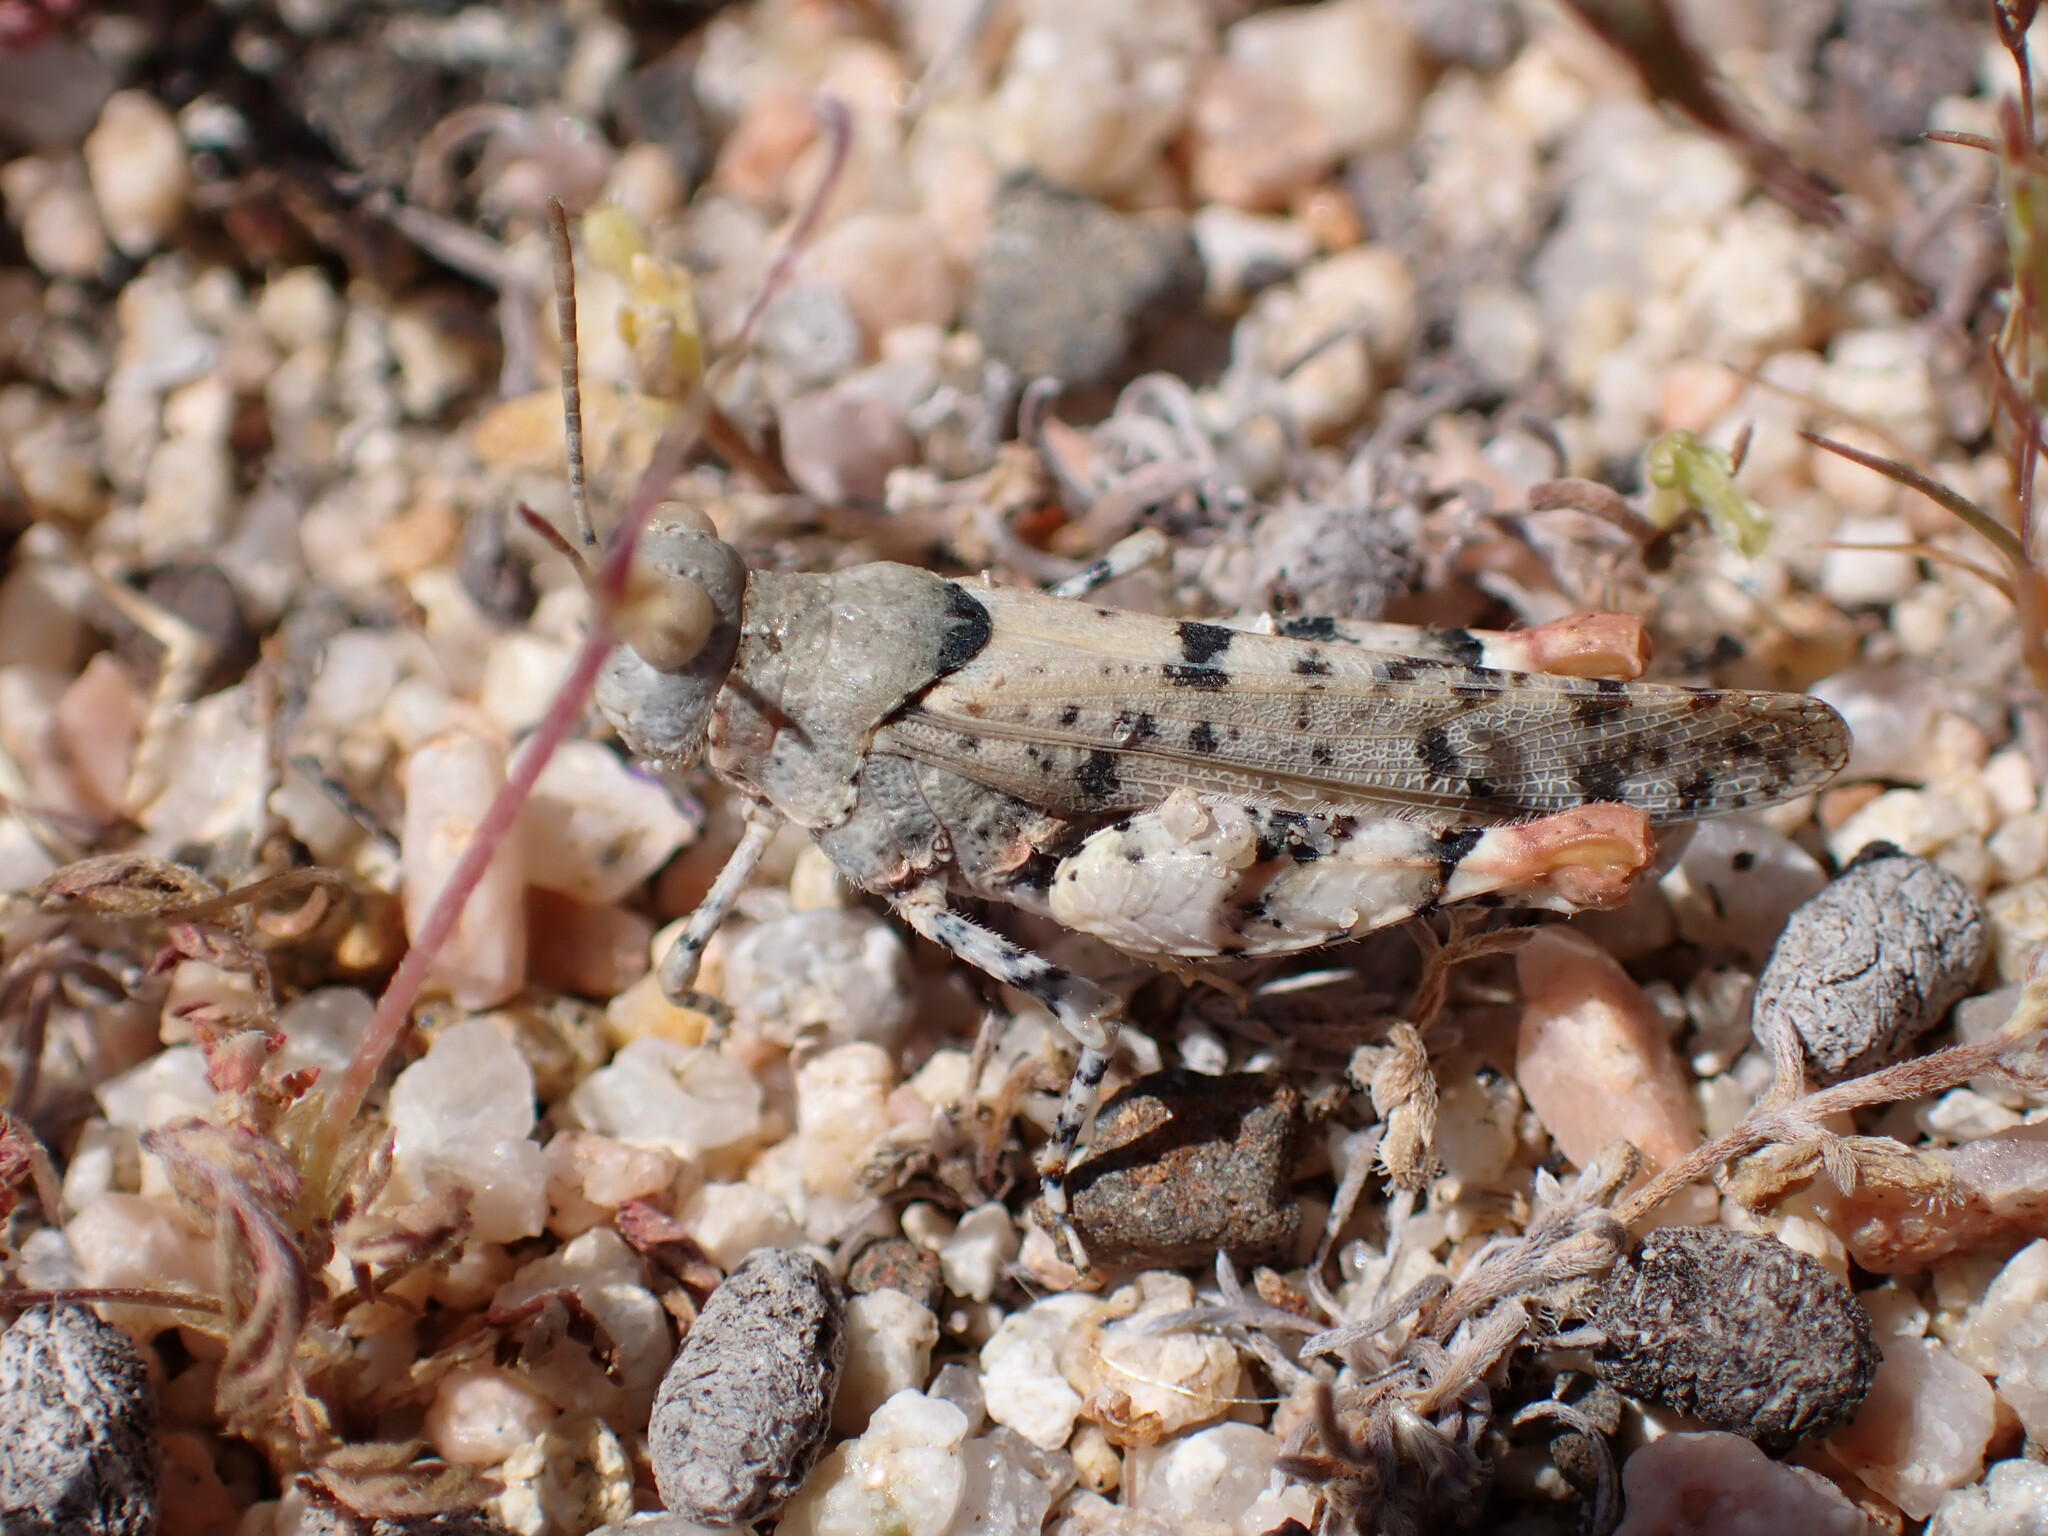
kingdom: Animalia
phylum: Arthropoda
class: Insecta
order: Orthoptera
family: Acrididae
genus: Cibolacris
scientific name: Cibolacris parviceps
